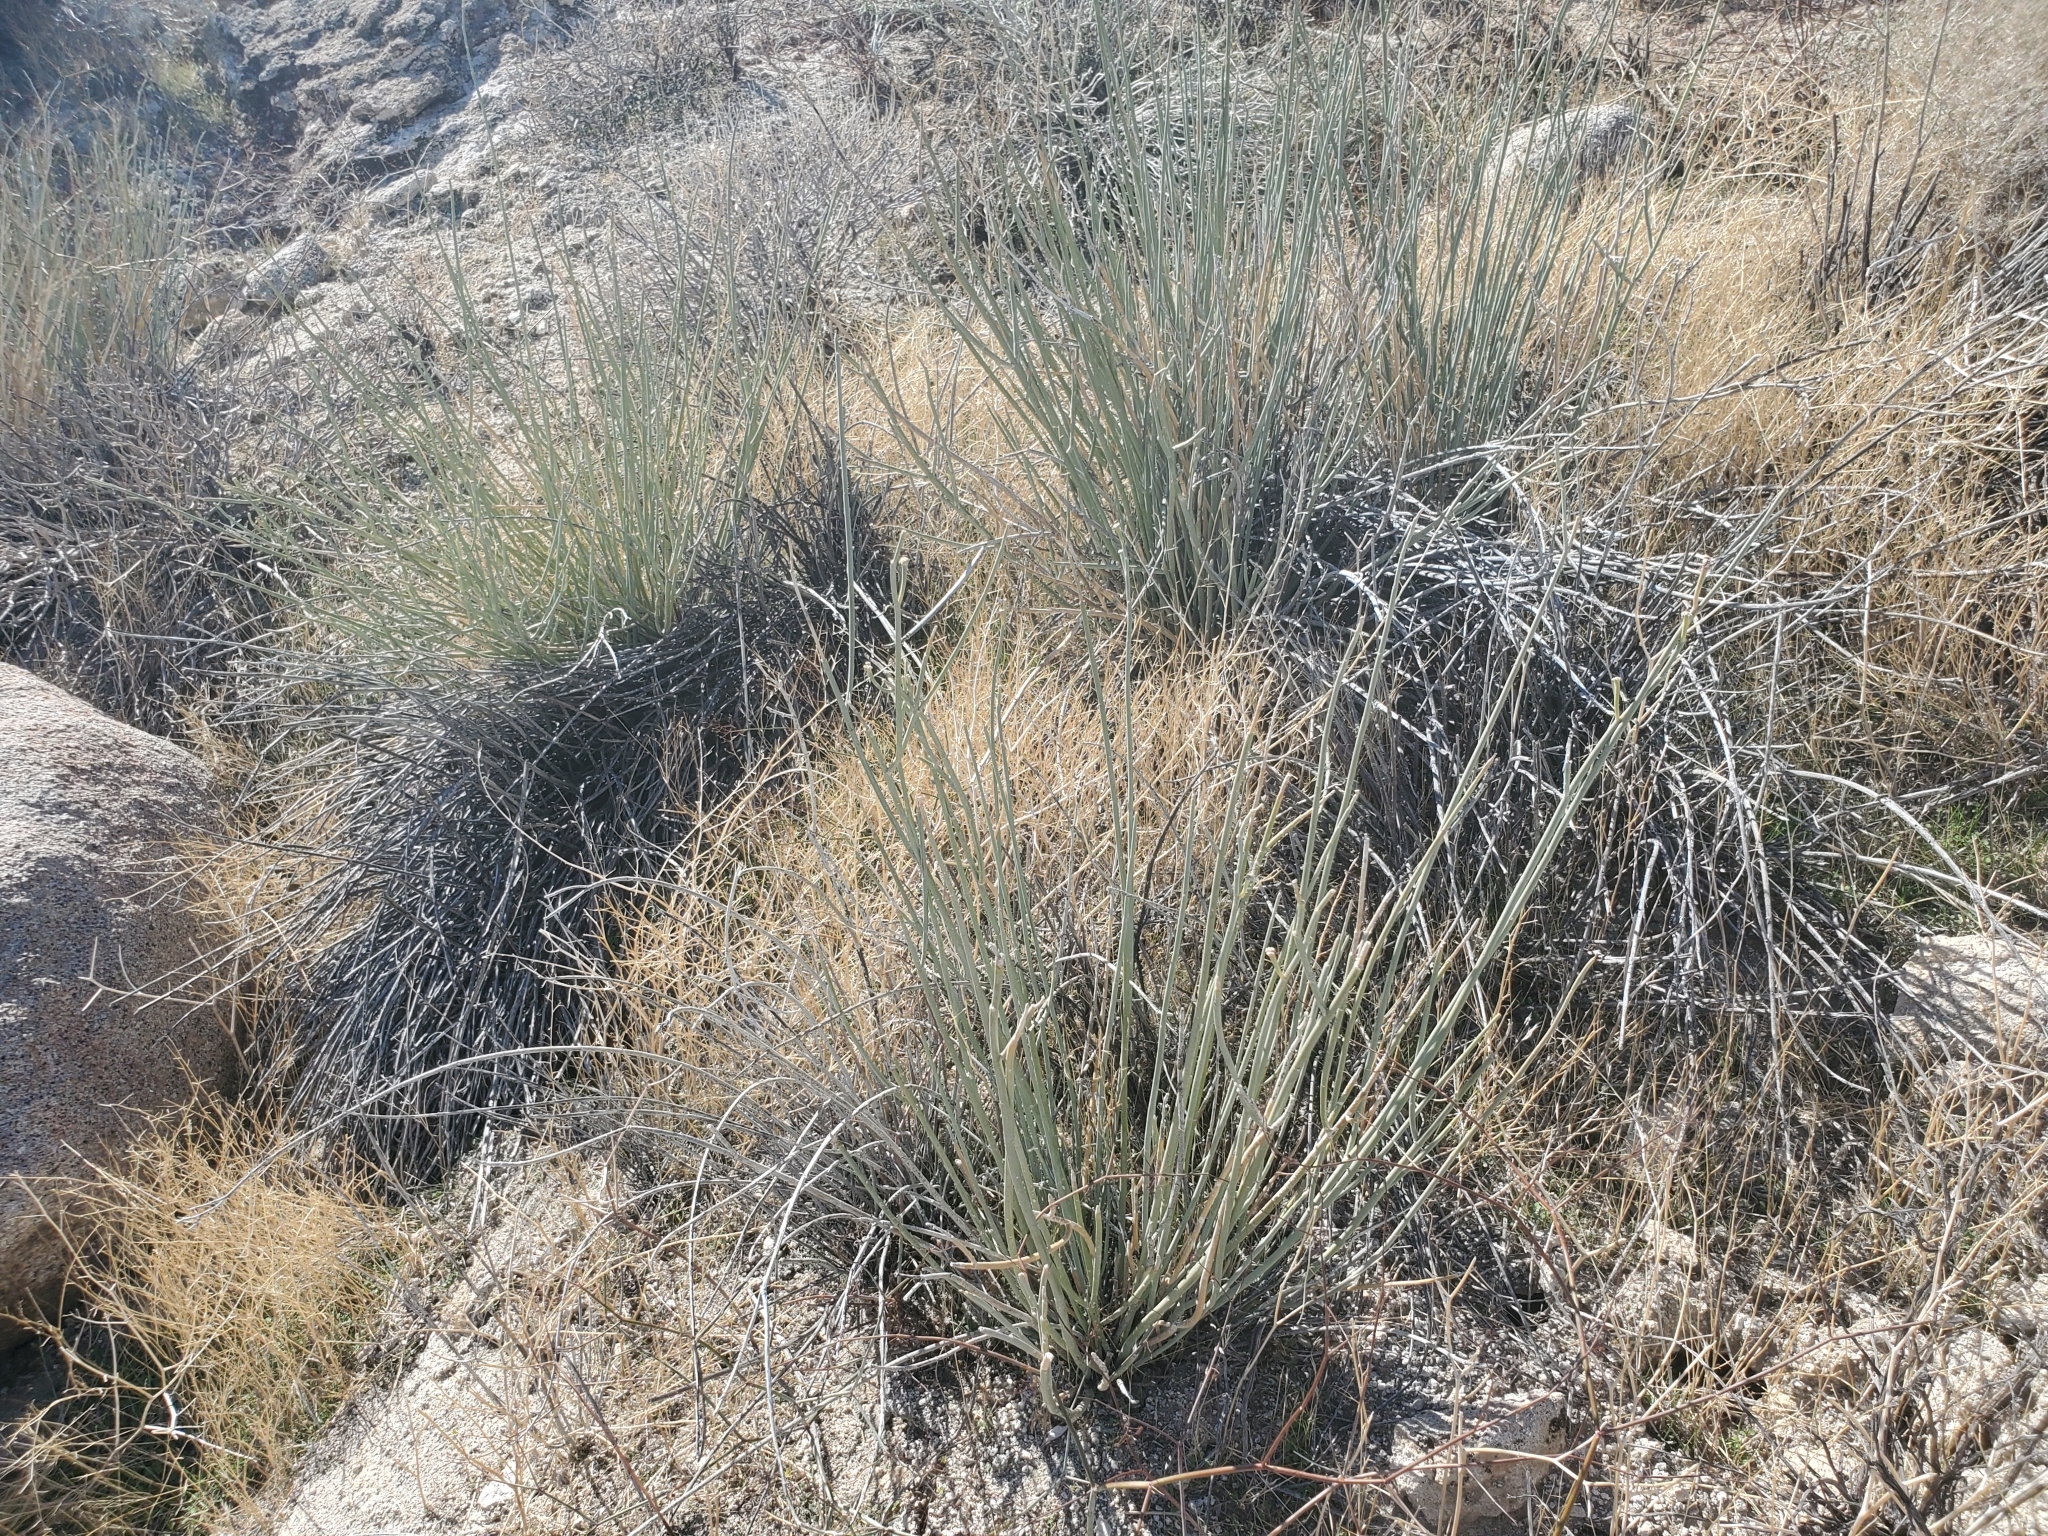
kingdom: Plantae
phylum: Tracheophyta
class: Magnoliopsida
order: Gentianales
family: Apocynaceae
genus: Asclepias
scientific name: Asclepias subulata
